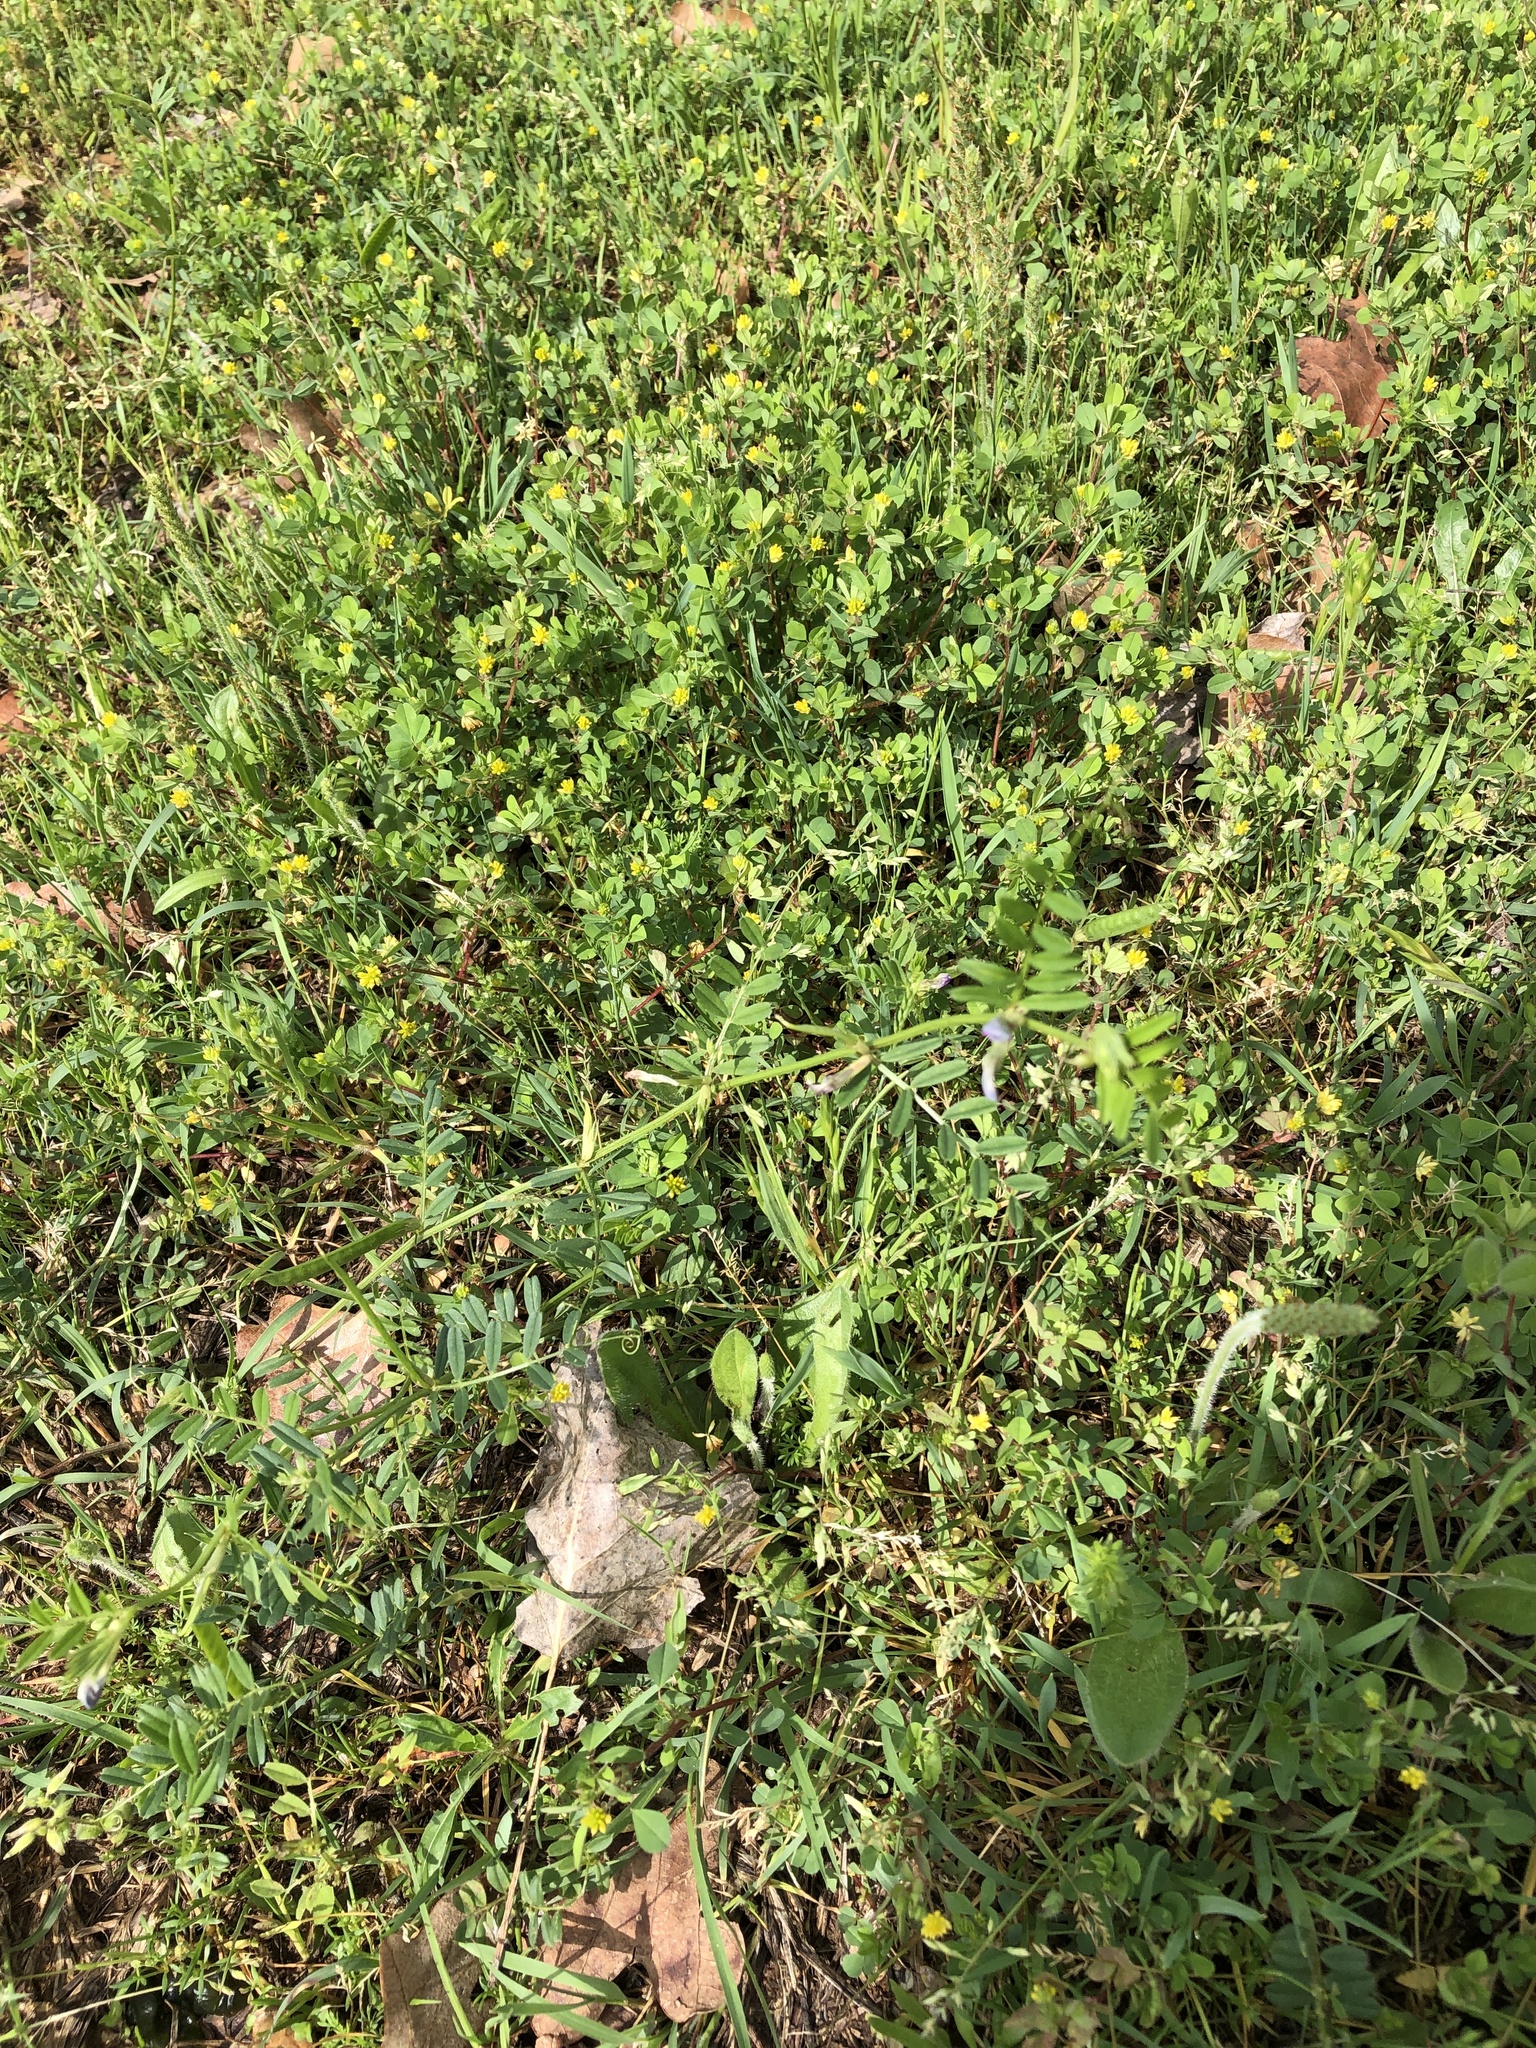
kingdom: Plantae
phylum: Tracheophyta
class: Magnoliopsida
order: Fabales
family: Fabaceae
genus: Vicia
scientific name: Vicia sativa
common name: Garden vetch
